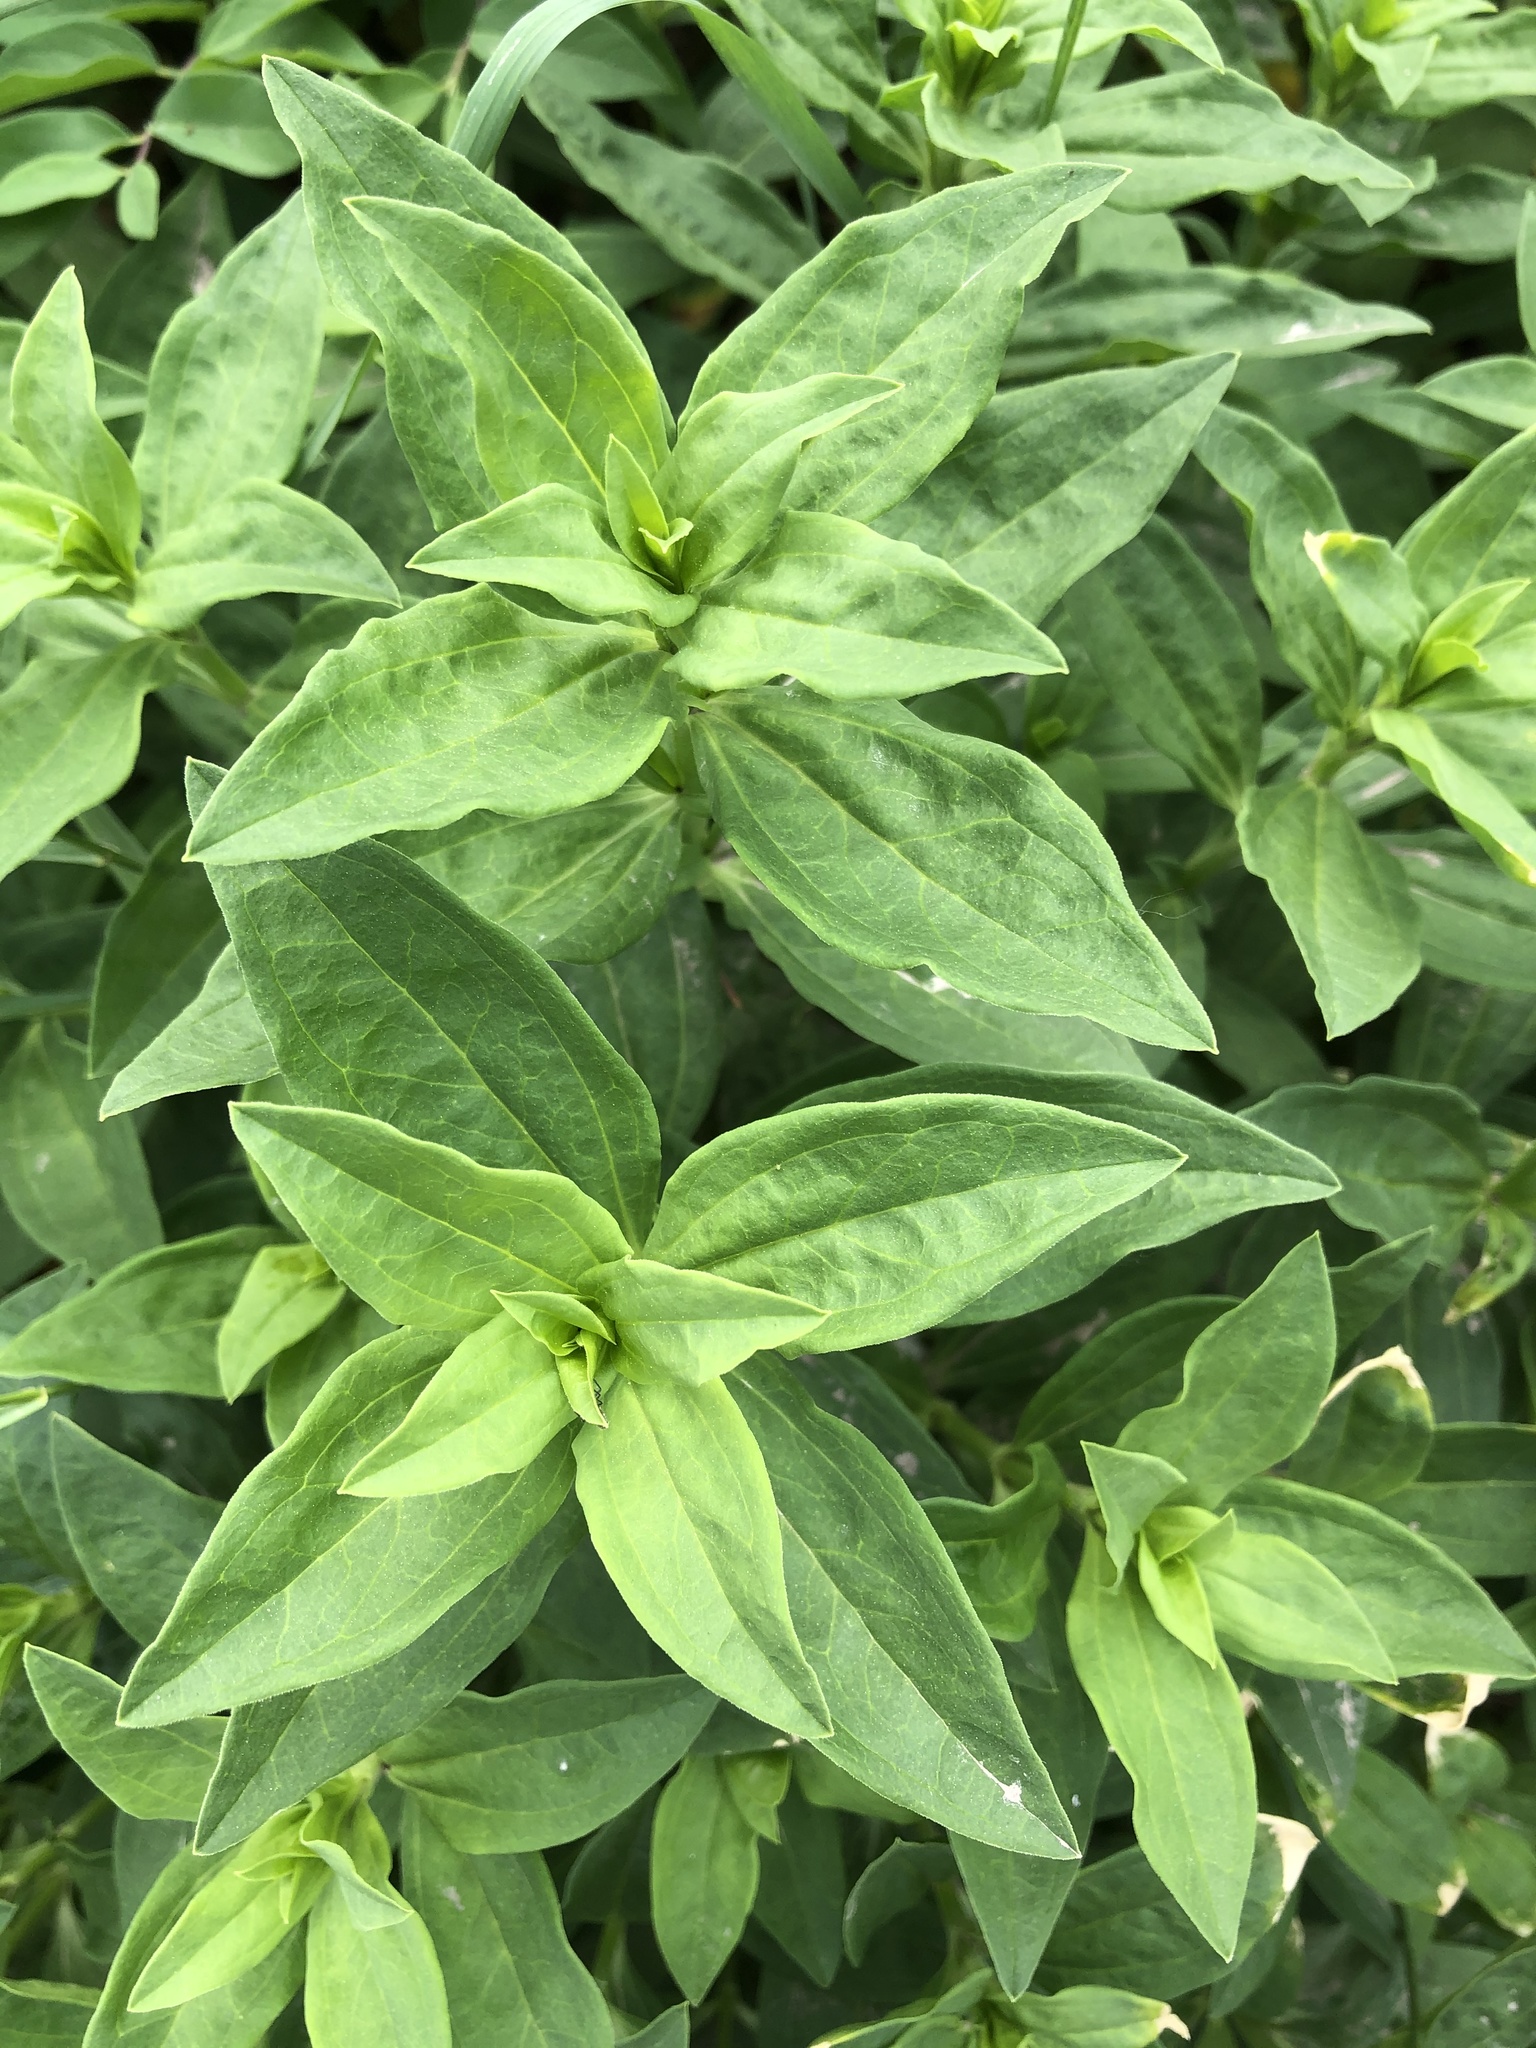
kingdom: Plantae
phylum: Tracheophyta
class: Magnoliopsida
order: Caryophyllales
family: Caryophyllaceae
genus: Saponaria
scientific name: Saponaria officinalis
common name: Soapwort
